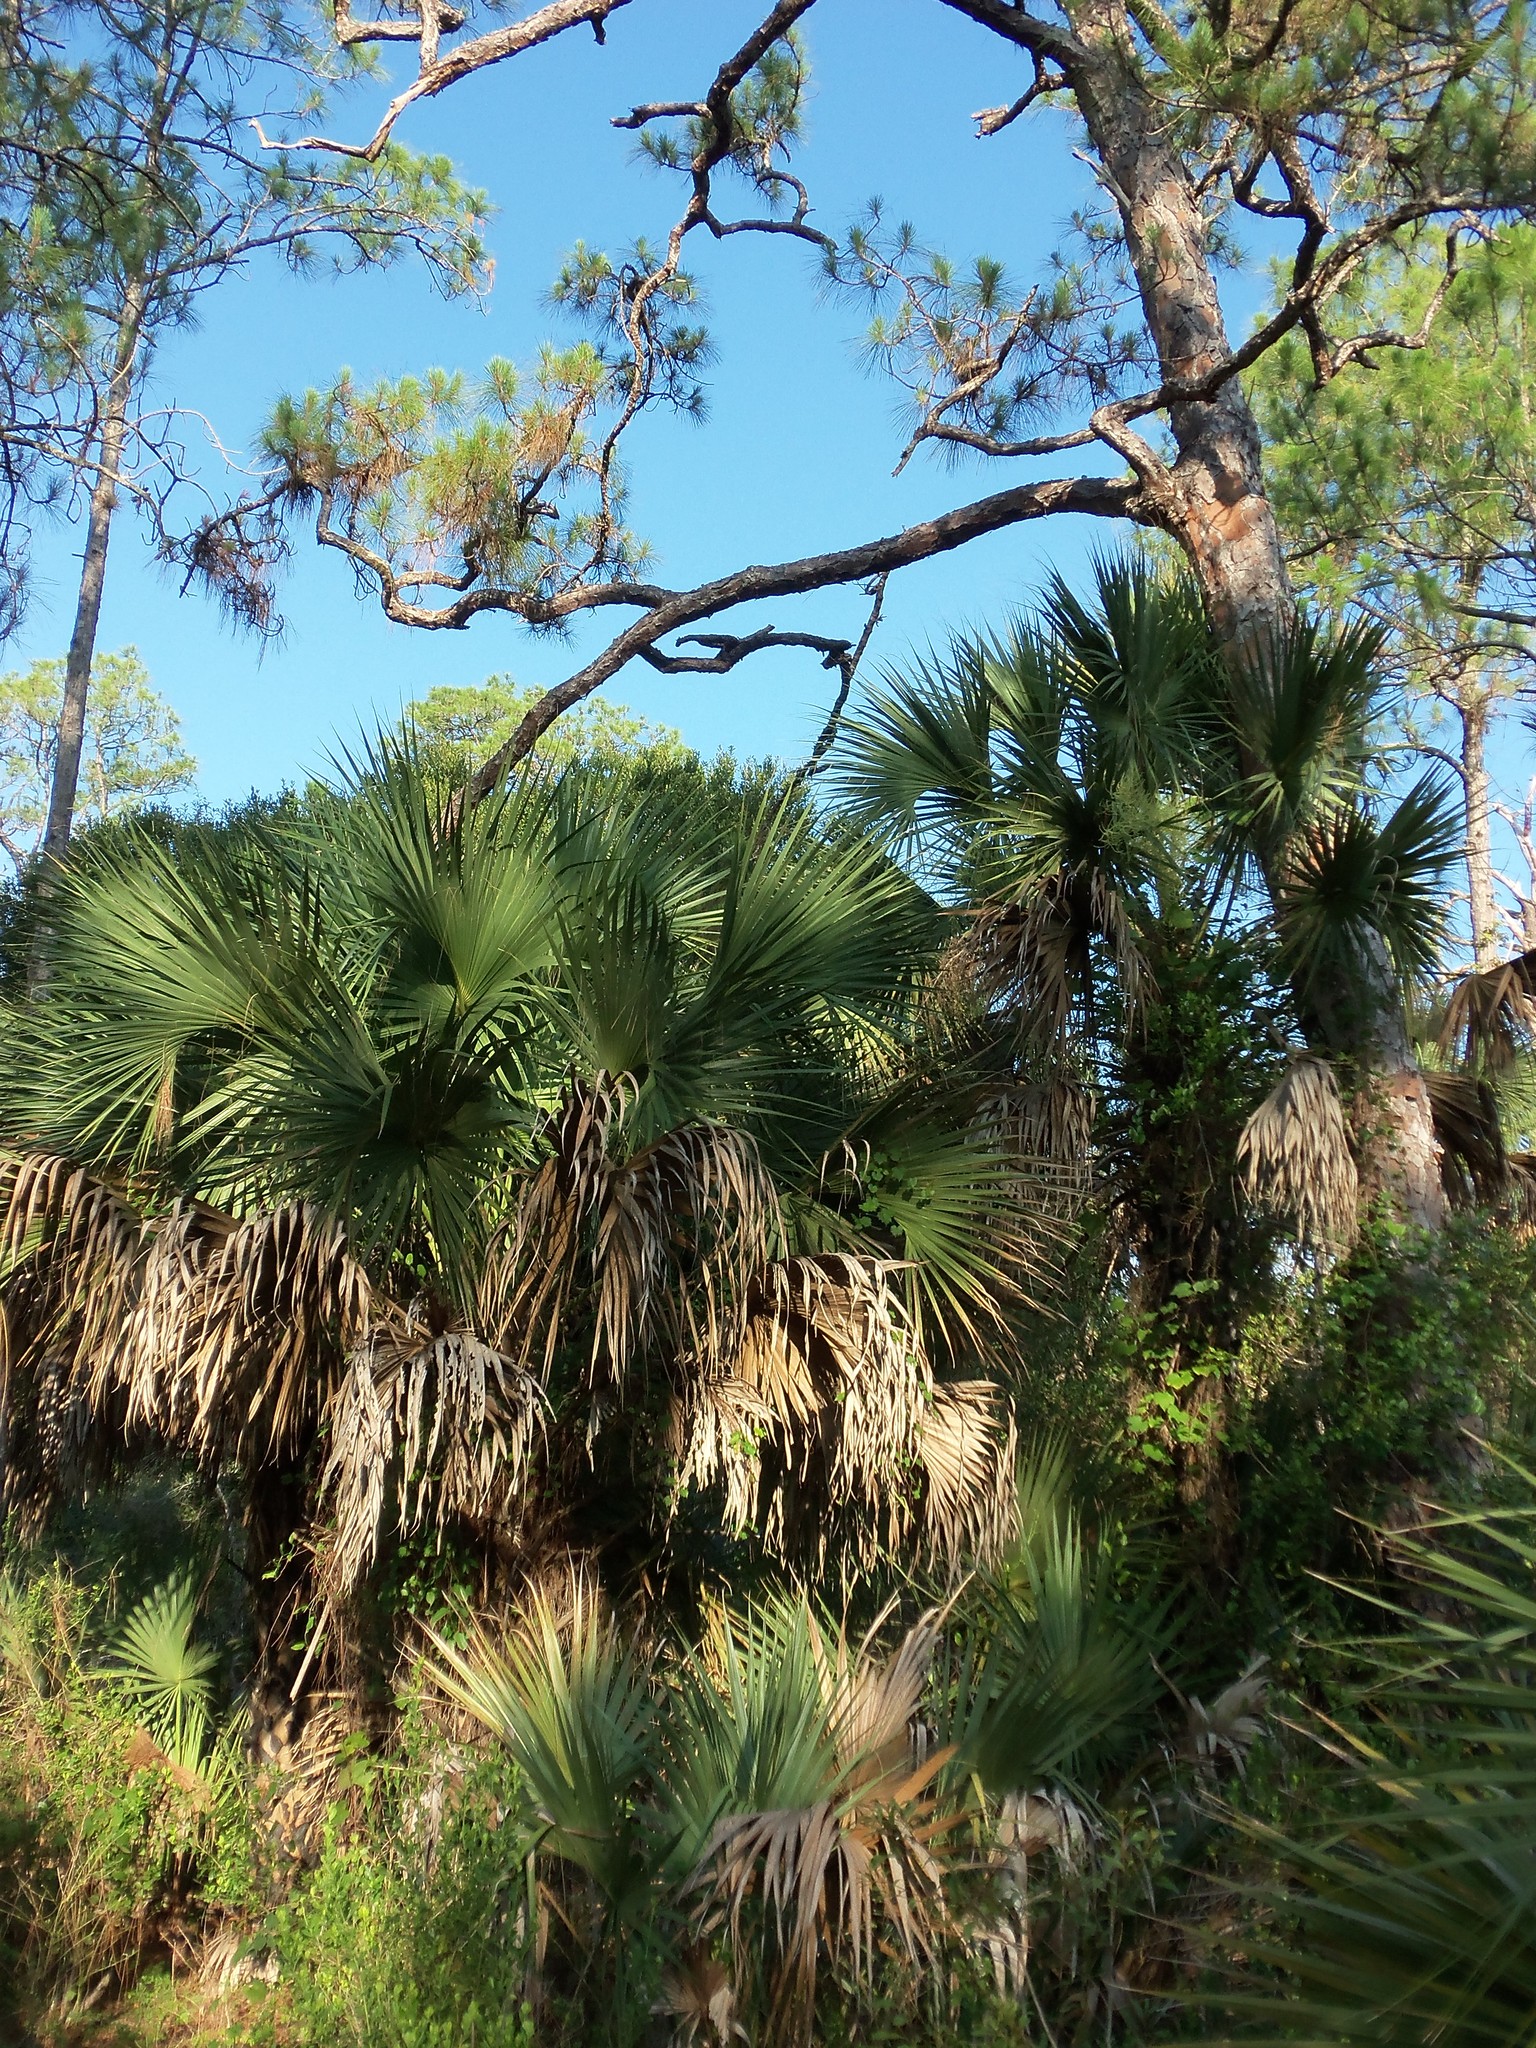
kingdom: Plantae
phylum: Tracheophyta
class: Liliopsida
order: Arecales
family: Arecaceae
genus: Sabal
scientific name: Sabal palmetto
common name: Blue palmetto
